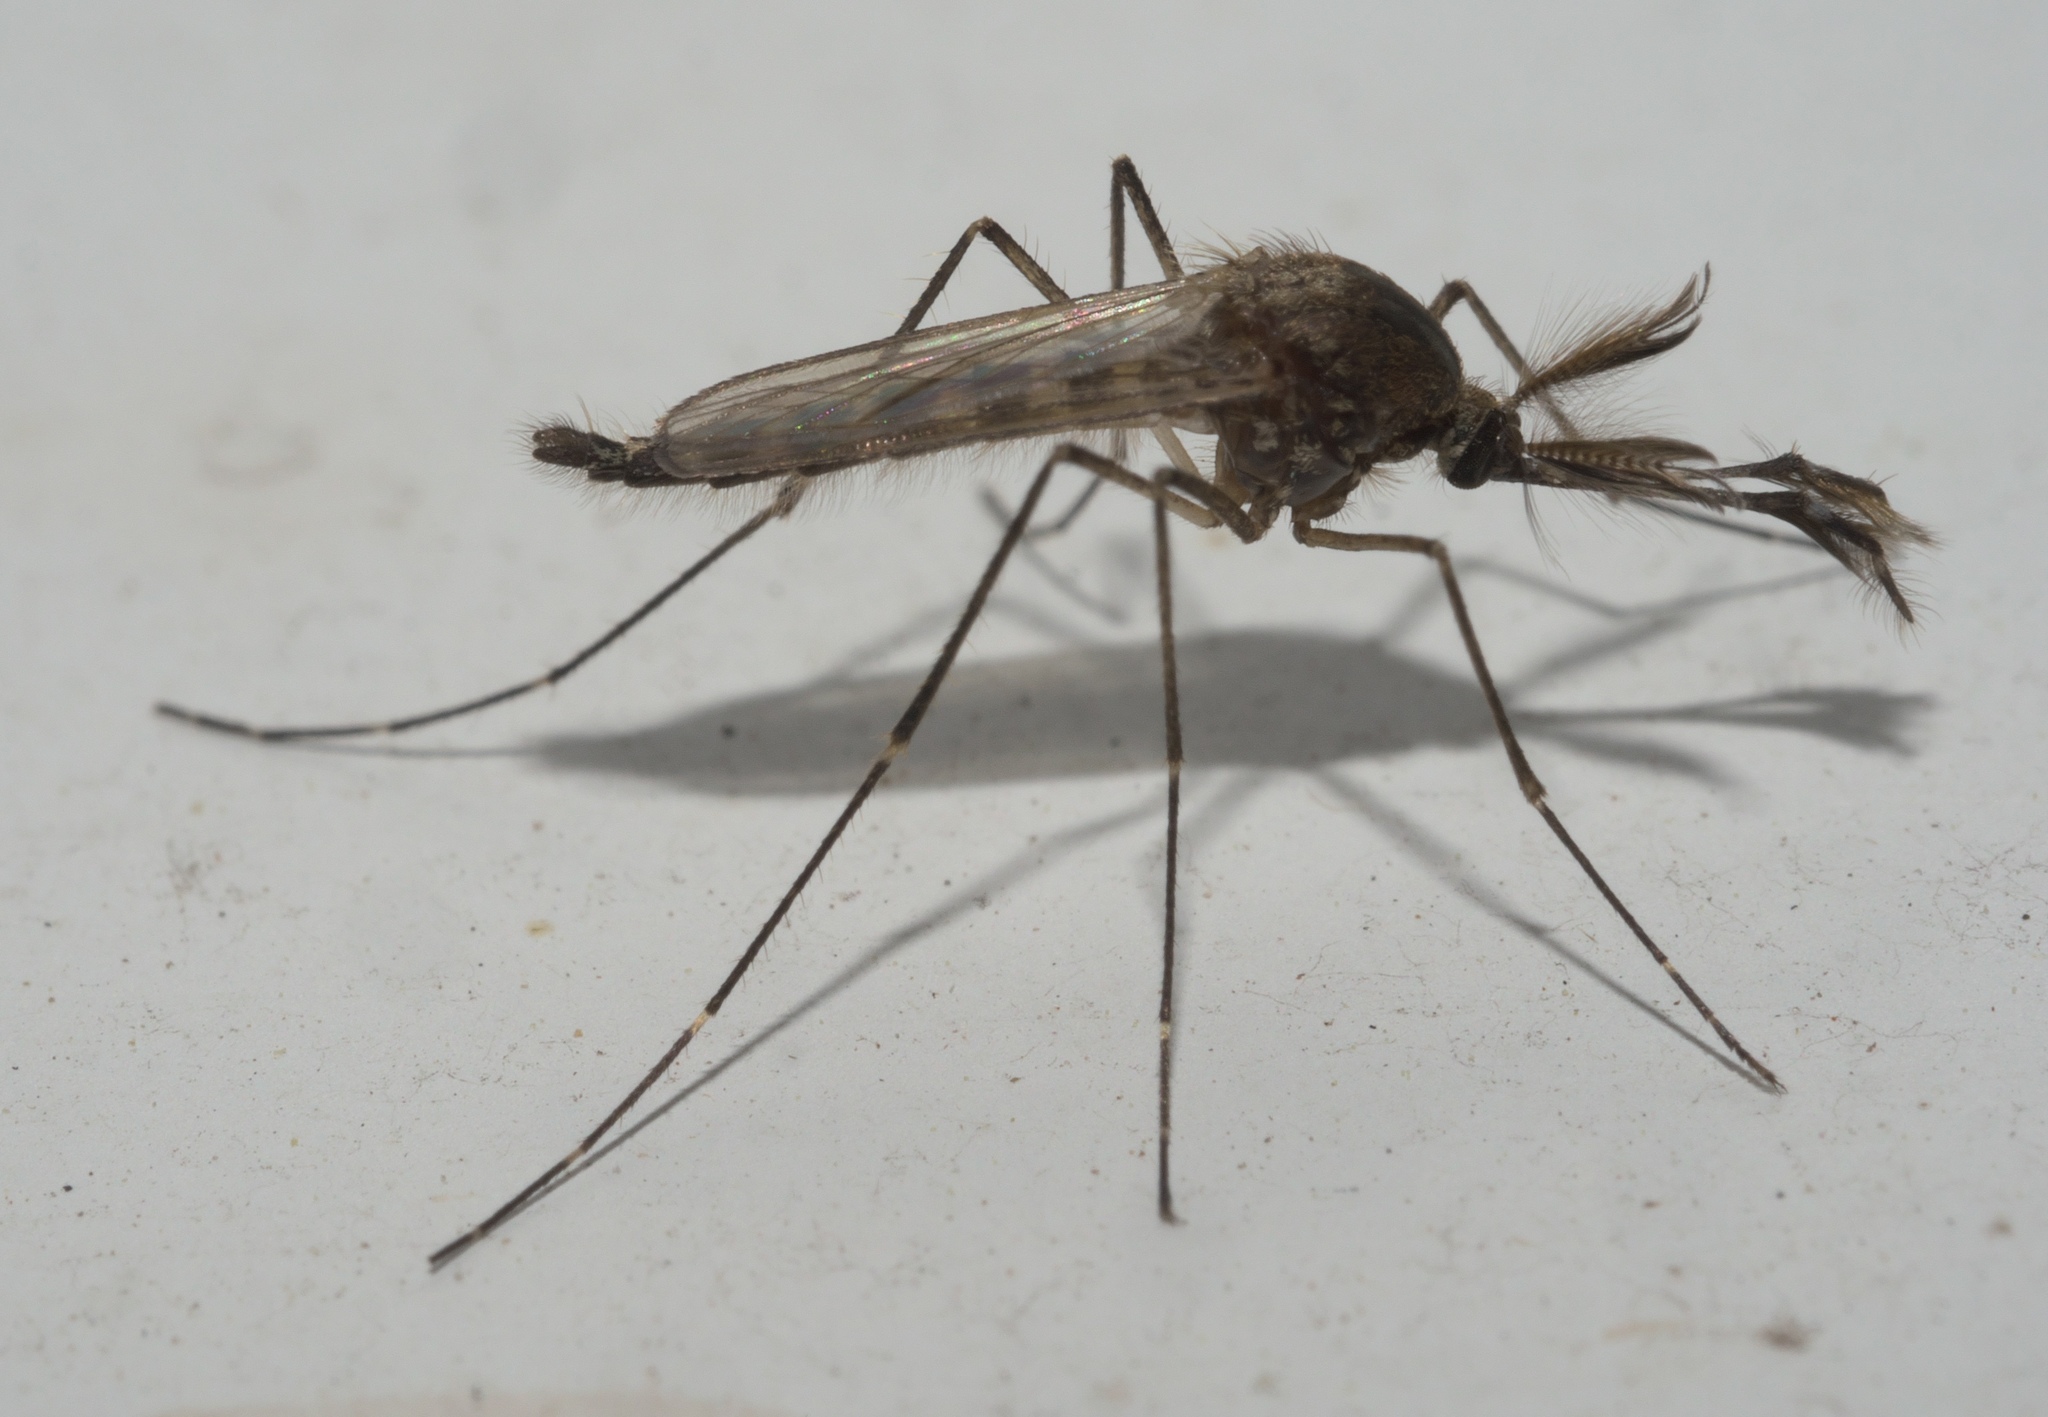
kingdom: Animalia
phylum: Arthropoda
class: Insecta
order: Diptera
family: Culicidae
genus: Aedes
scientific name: Aedes vexans
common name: Inland floodwater mosquito
